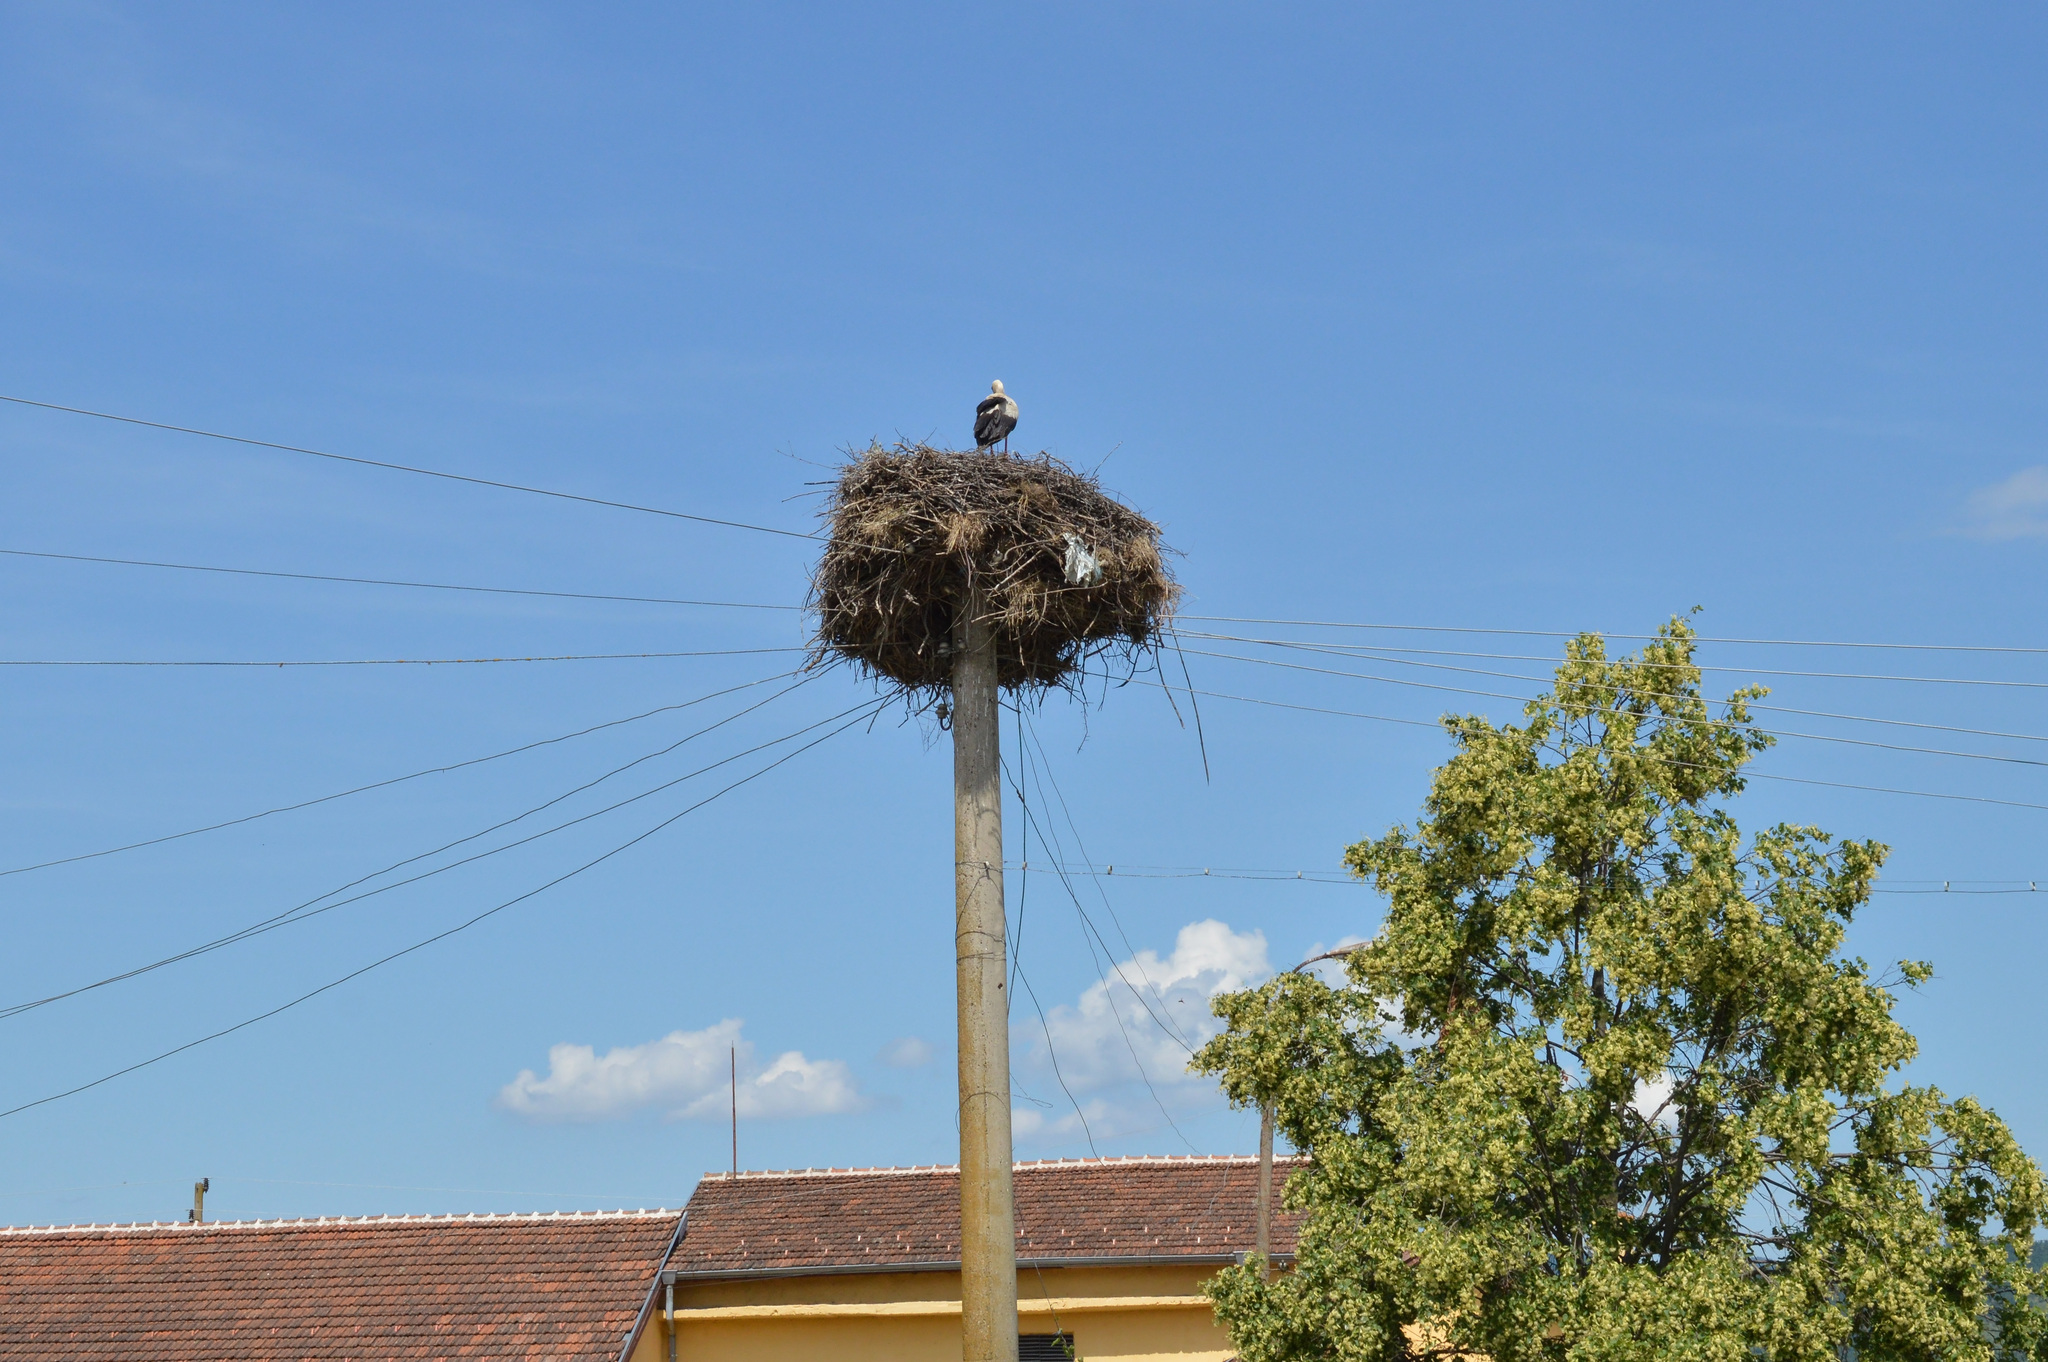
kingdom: Animalia
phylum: Chordata
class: Aves
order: Ciconiiformes
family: Ciconiidae
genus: Ciconia
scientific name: Ciconia ciconia
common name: White stork
